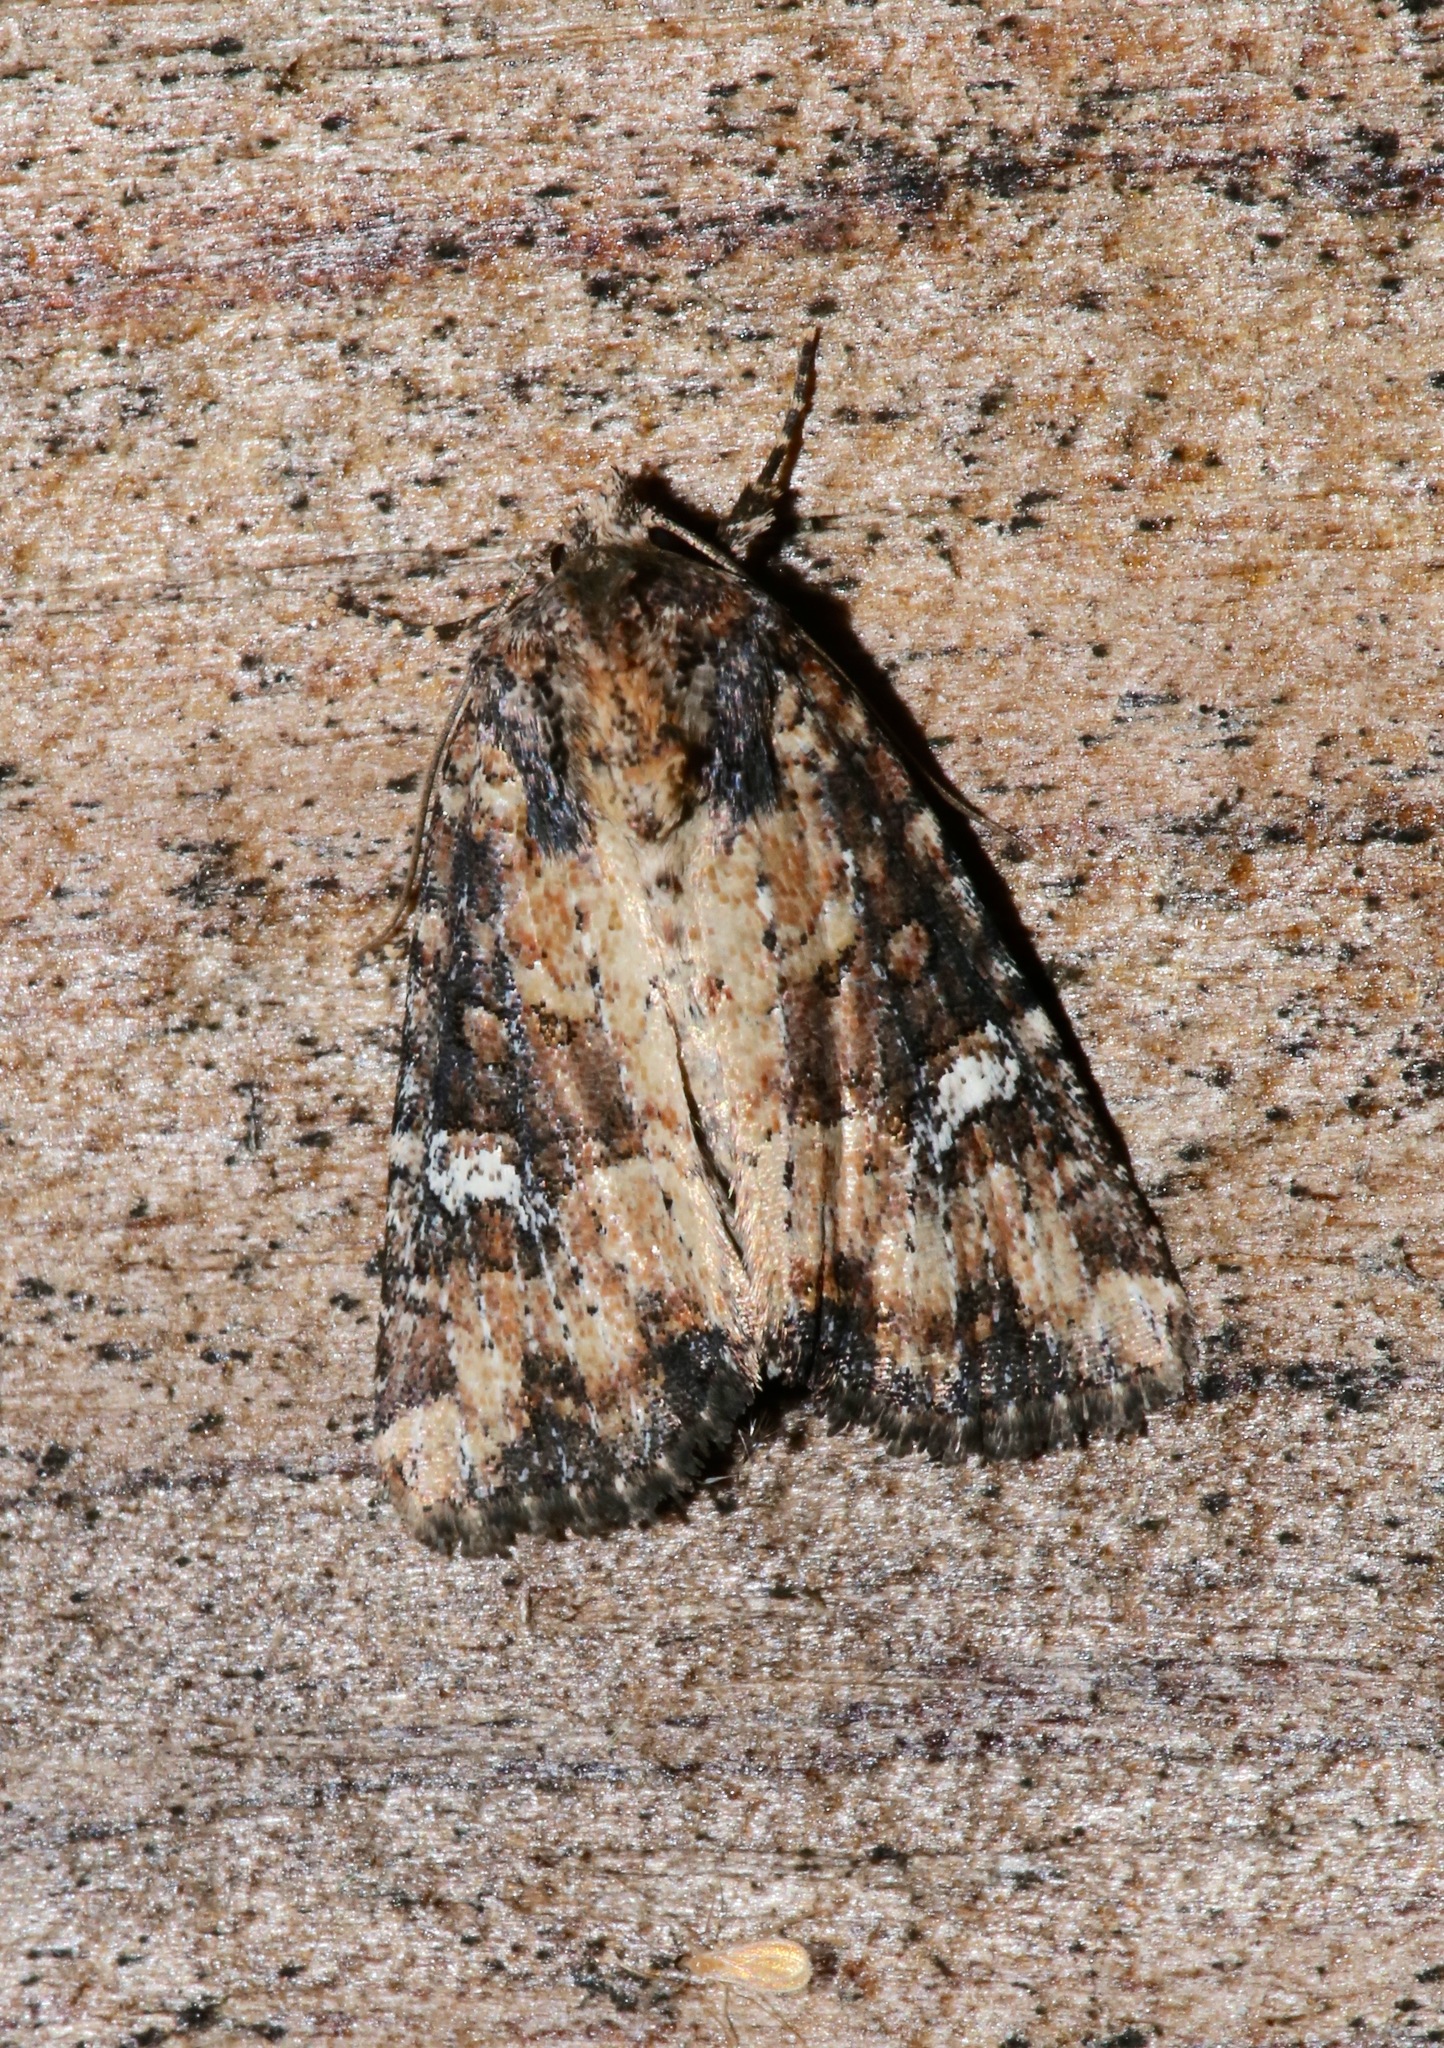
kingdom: Animalia
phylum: Arthropoda
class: Insecta
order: Lepidoptera
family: Noctuidae
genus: Mesapamea
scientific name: Mesapamea fractilinea
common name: Broken-lined brocade moth
